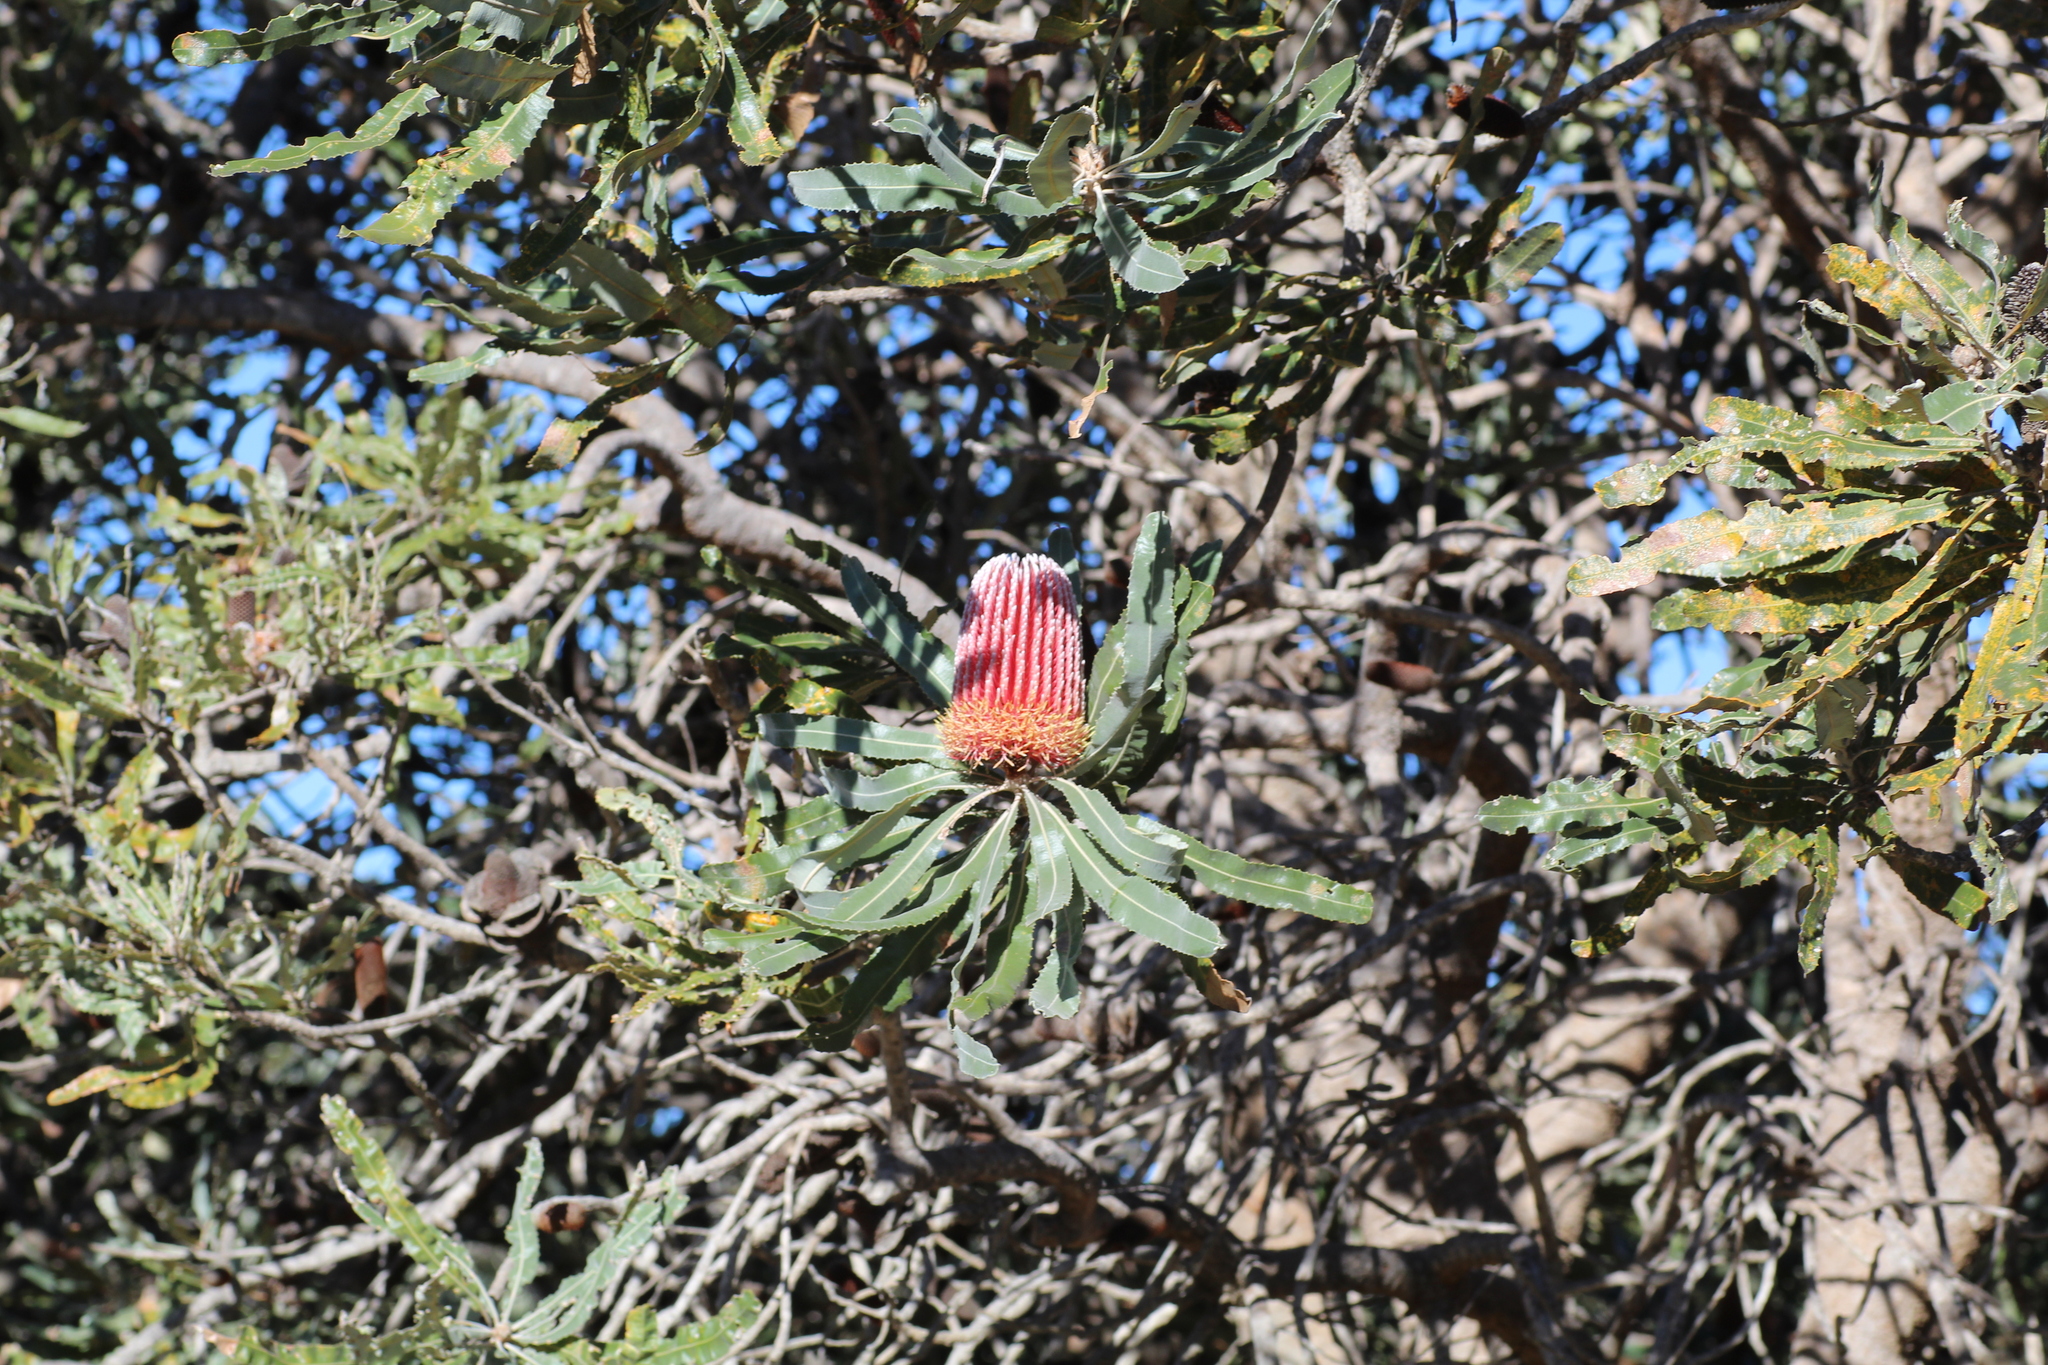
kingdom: Plantae
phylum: Tracheophyta
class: Magnoliopsida
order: Proteales
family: Proteaceae
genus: Banksia
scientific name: Banksia menziesii
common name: Menzie's banksia
